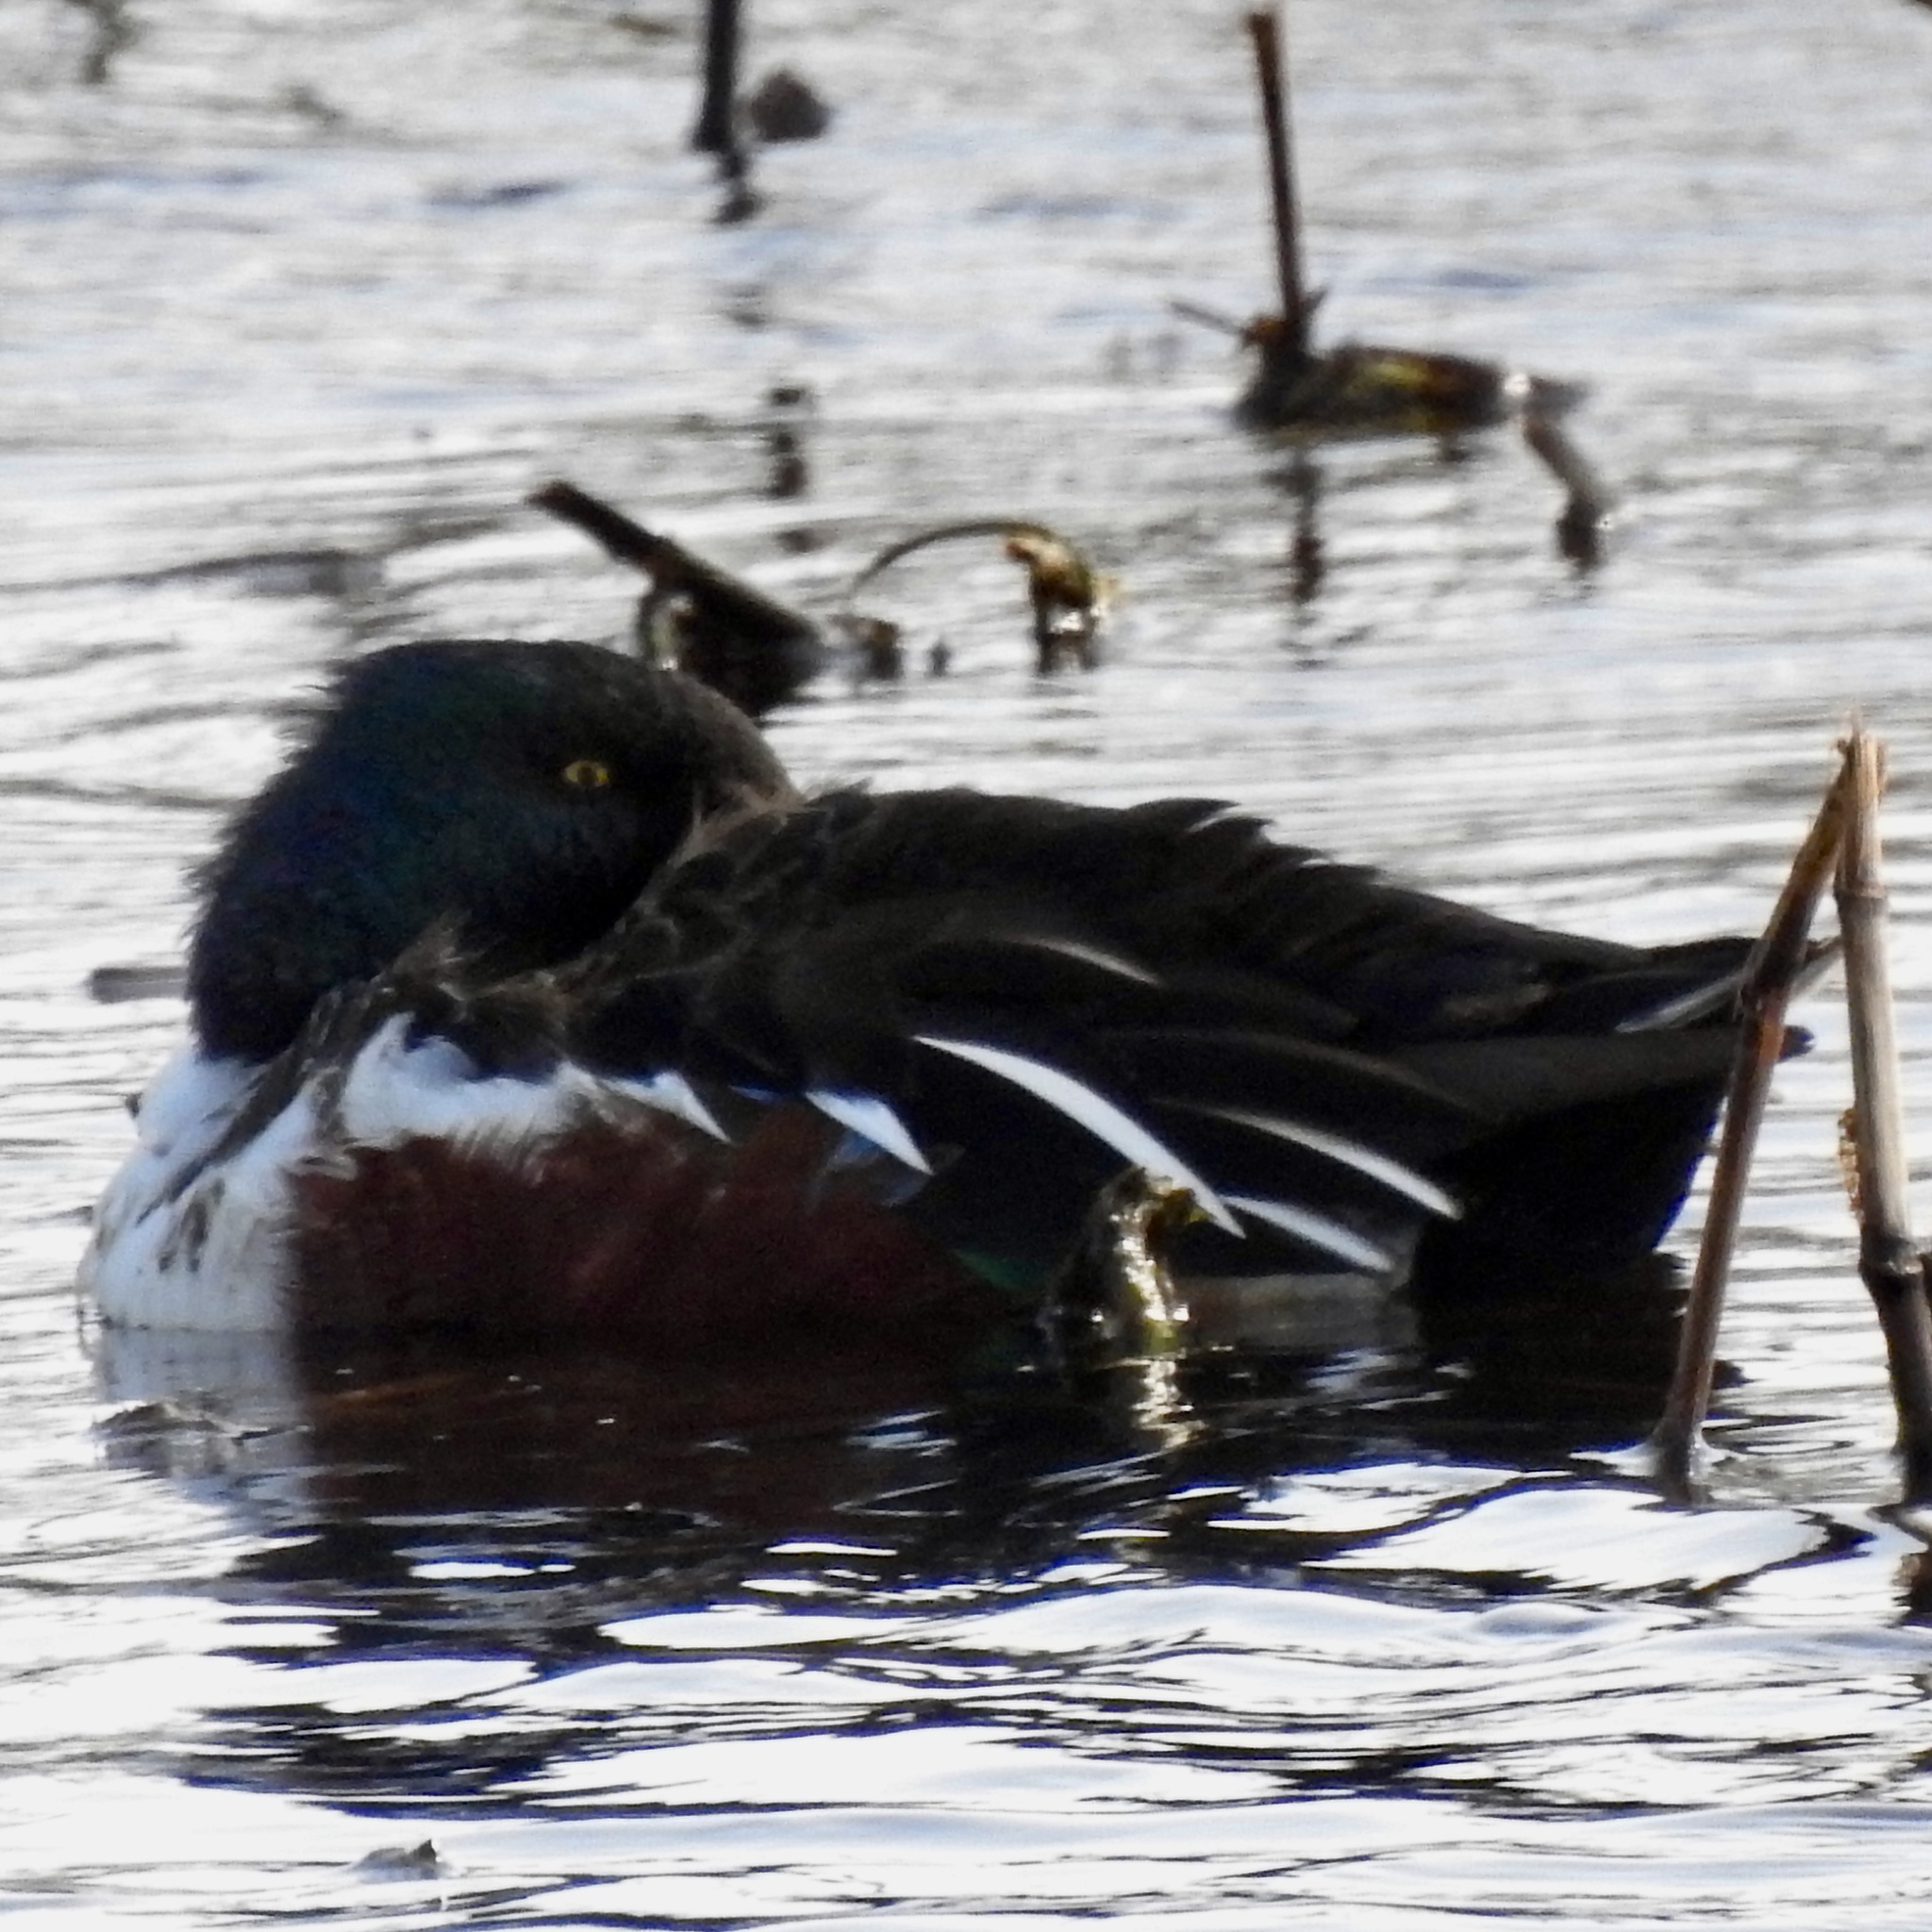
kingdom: Animalia
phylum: Chordata
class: Aves
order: Anseriformes
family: Anatidae
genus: Spatula
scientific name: Spatula clypeata
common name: Northern shoveler
